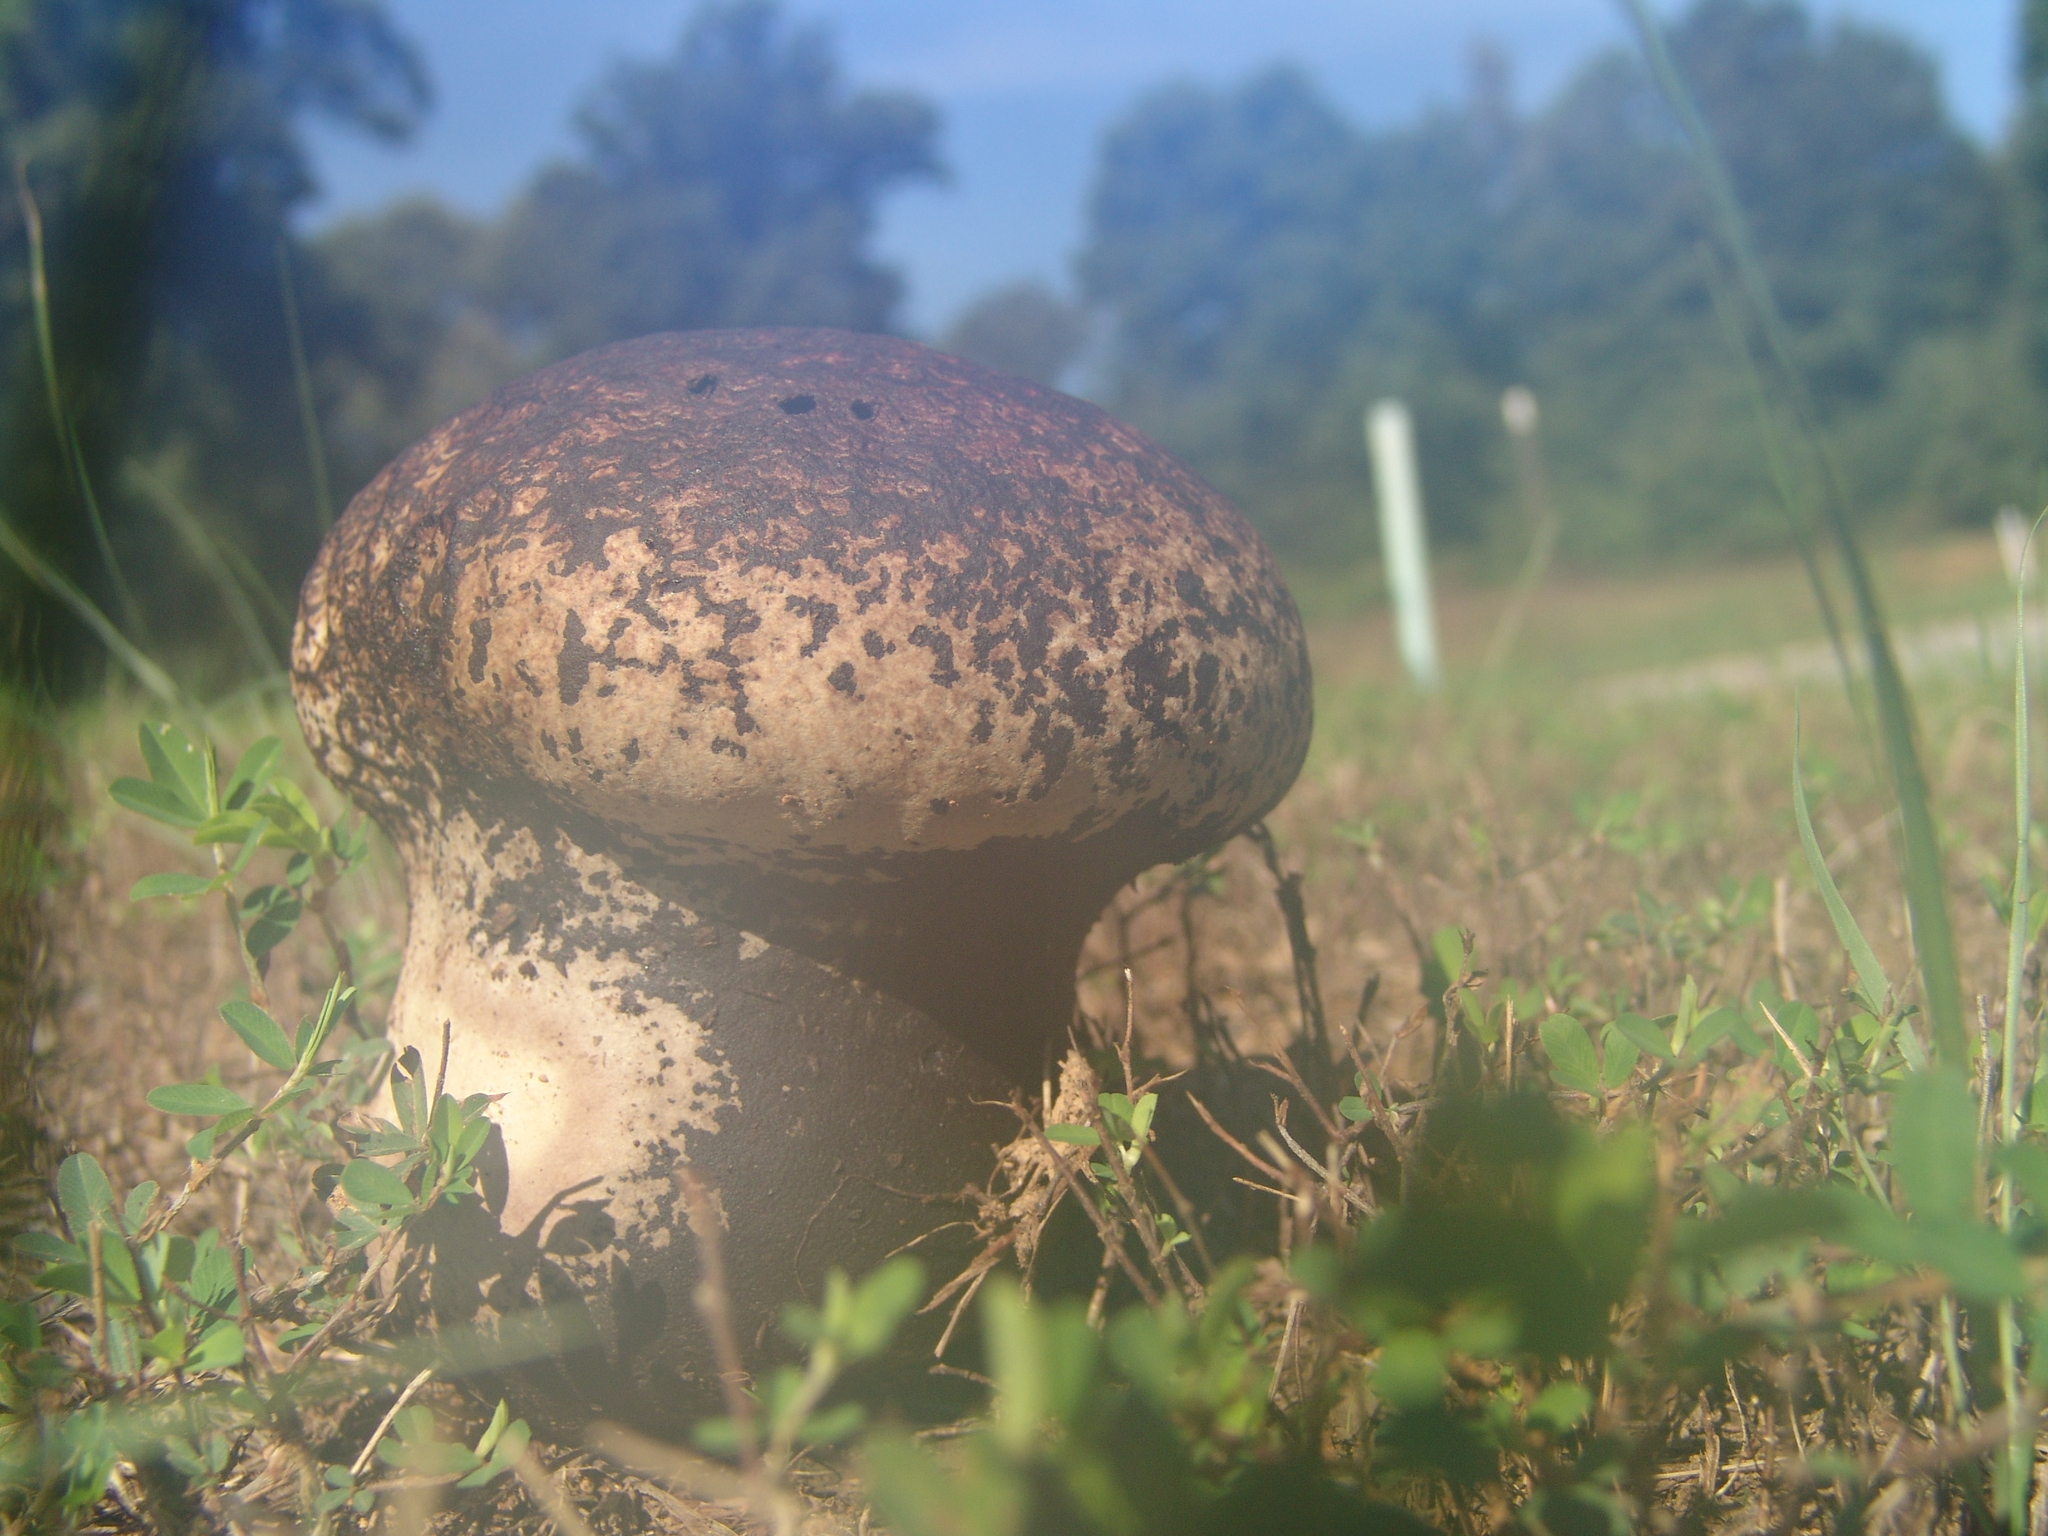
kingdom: Fungi
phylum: Basidiomycota
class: Agaricomycetes
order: Agaricales
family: Lycoperdaceae
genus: Calvatia
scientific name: Calvatia cyathiformis
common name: Purple-spored puffball
